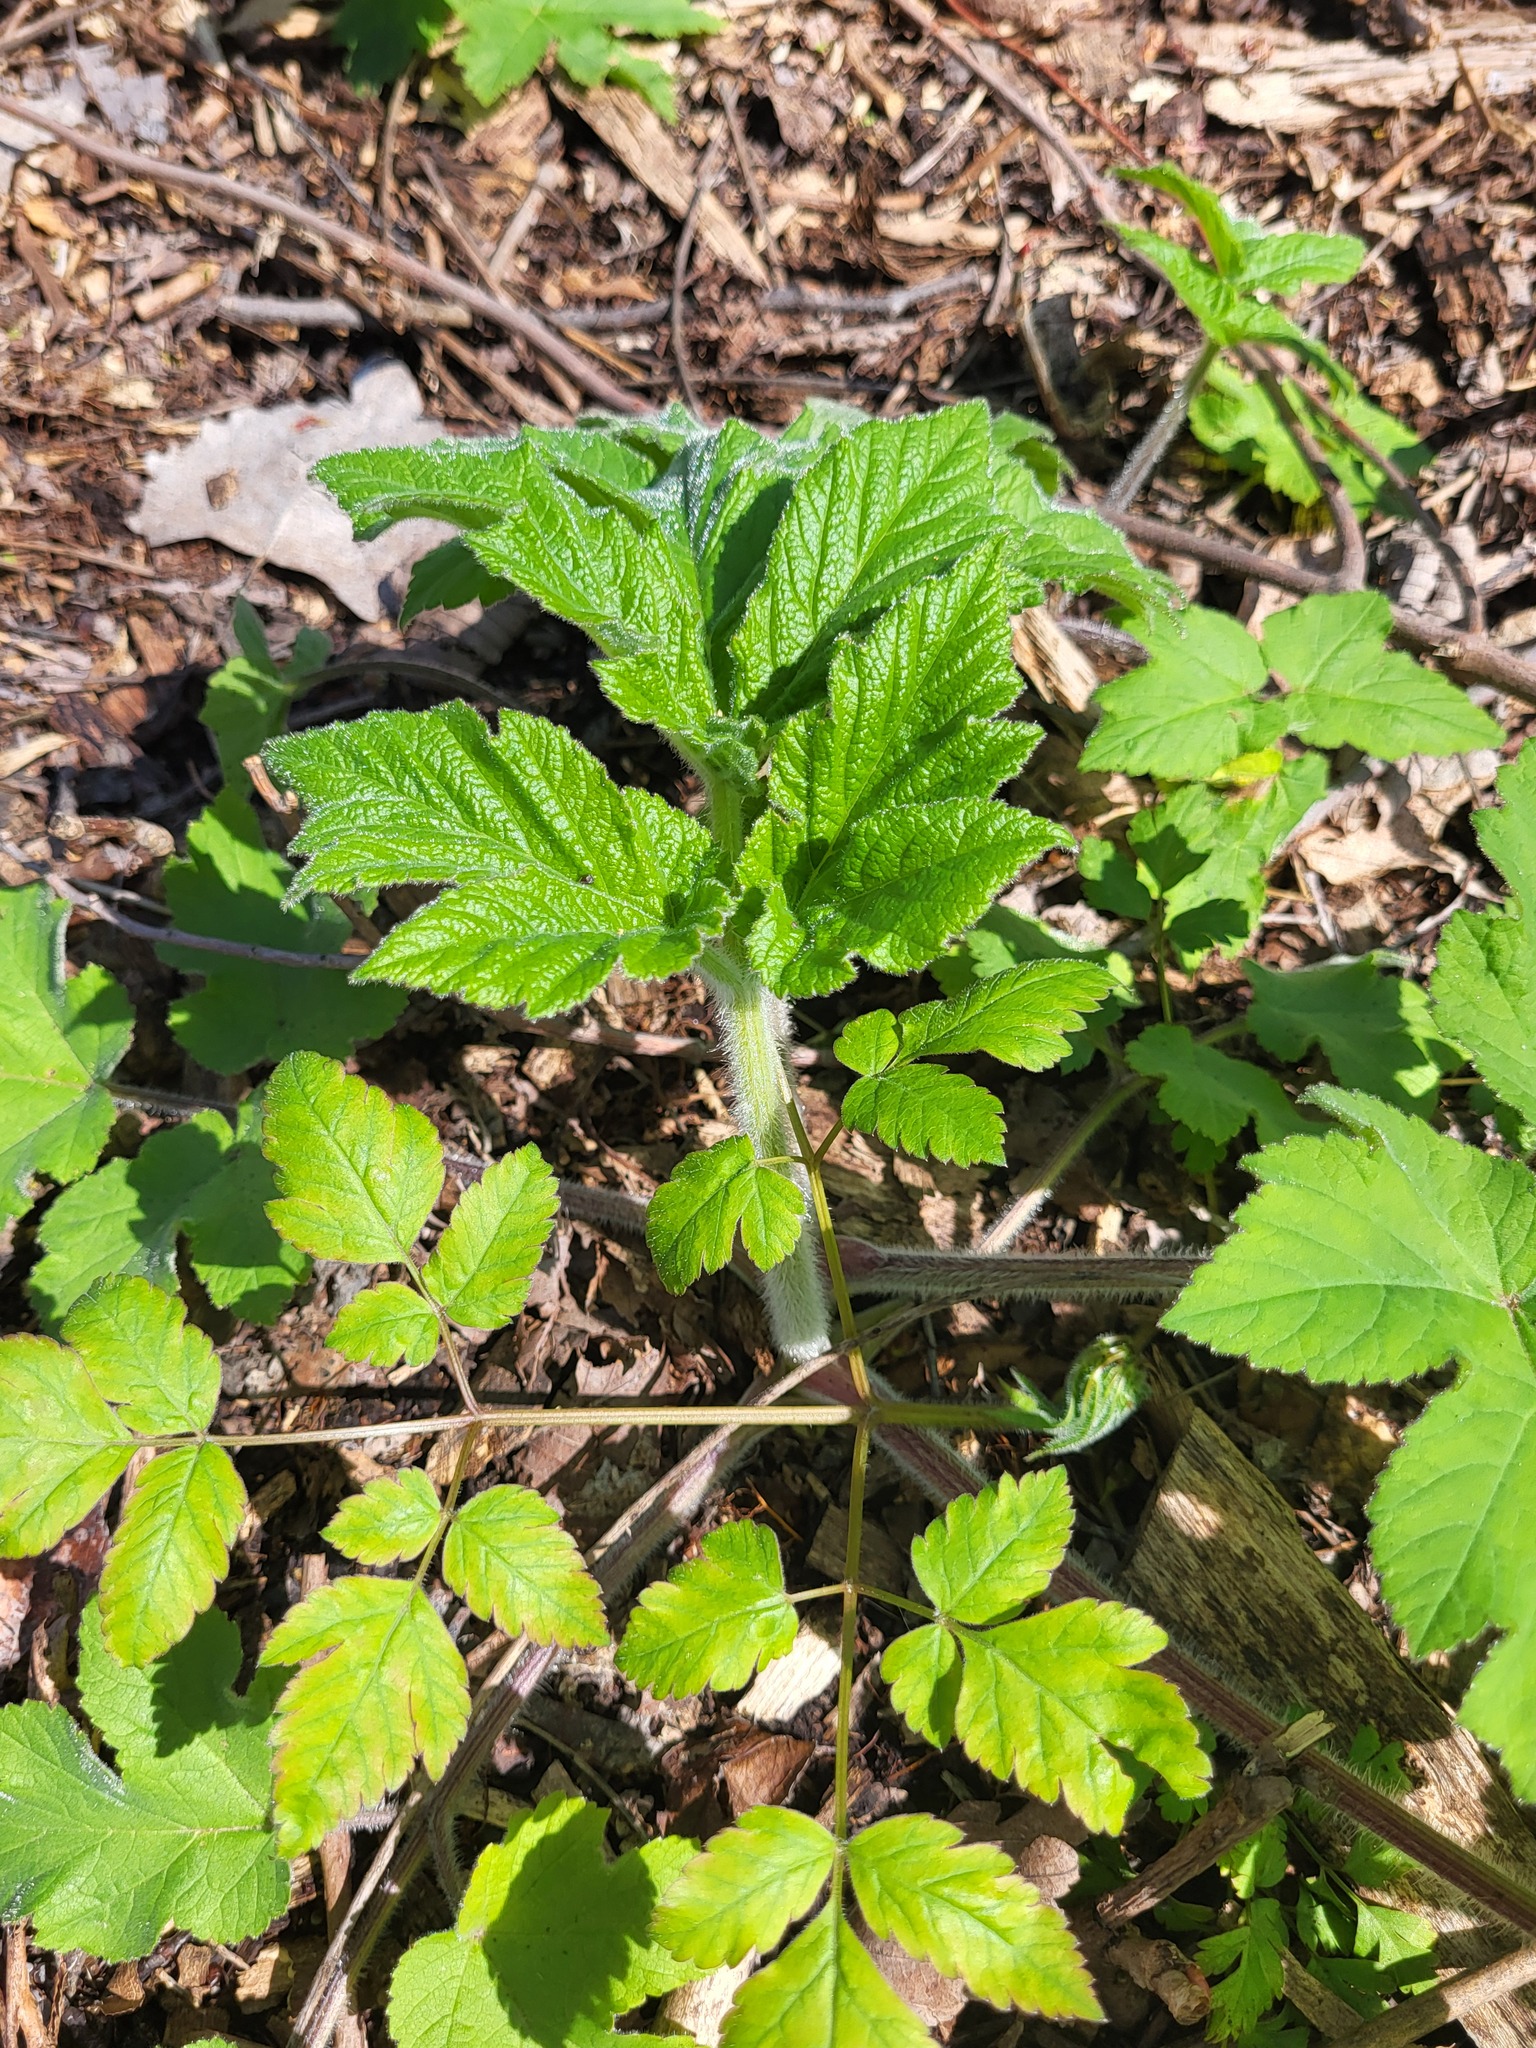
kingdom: Plantae
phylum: Tracheophyta
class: Magnoliopsida
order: Apiales
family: Apiaceae
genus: Heracleum
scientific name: Heracleum maximum
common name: American cow parsnip
